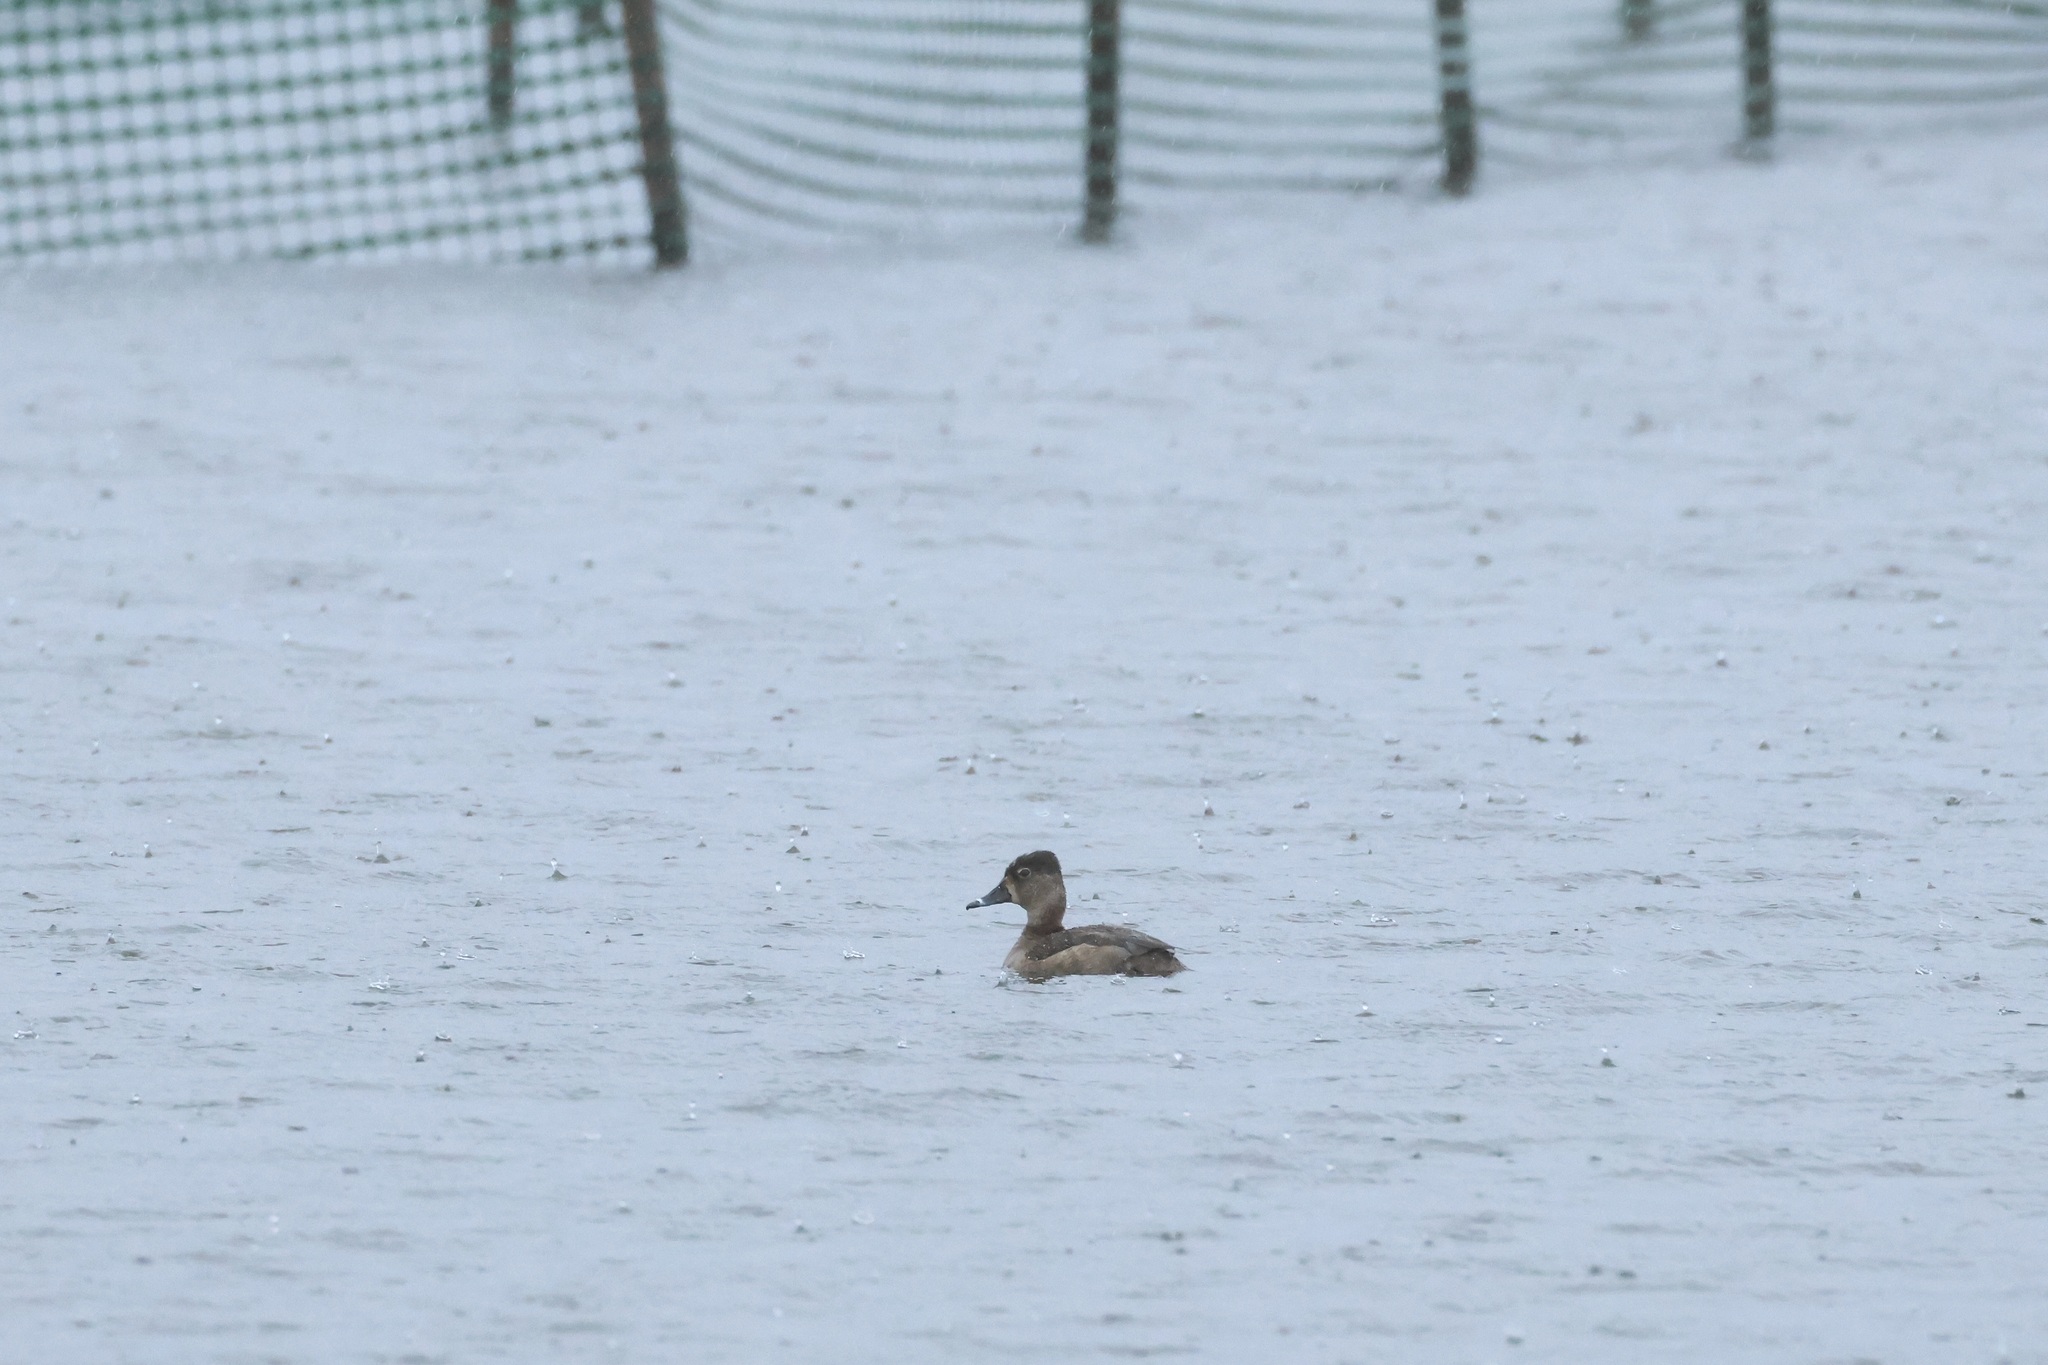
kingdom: Animalia
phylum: Chordata
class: Aves
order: Anseriformes
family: Anatidae
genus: Aythya
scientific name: Aythya collaris
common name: Ring-necked duck
